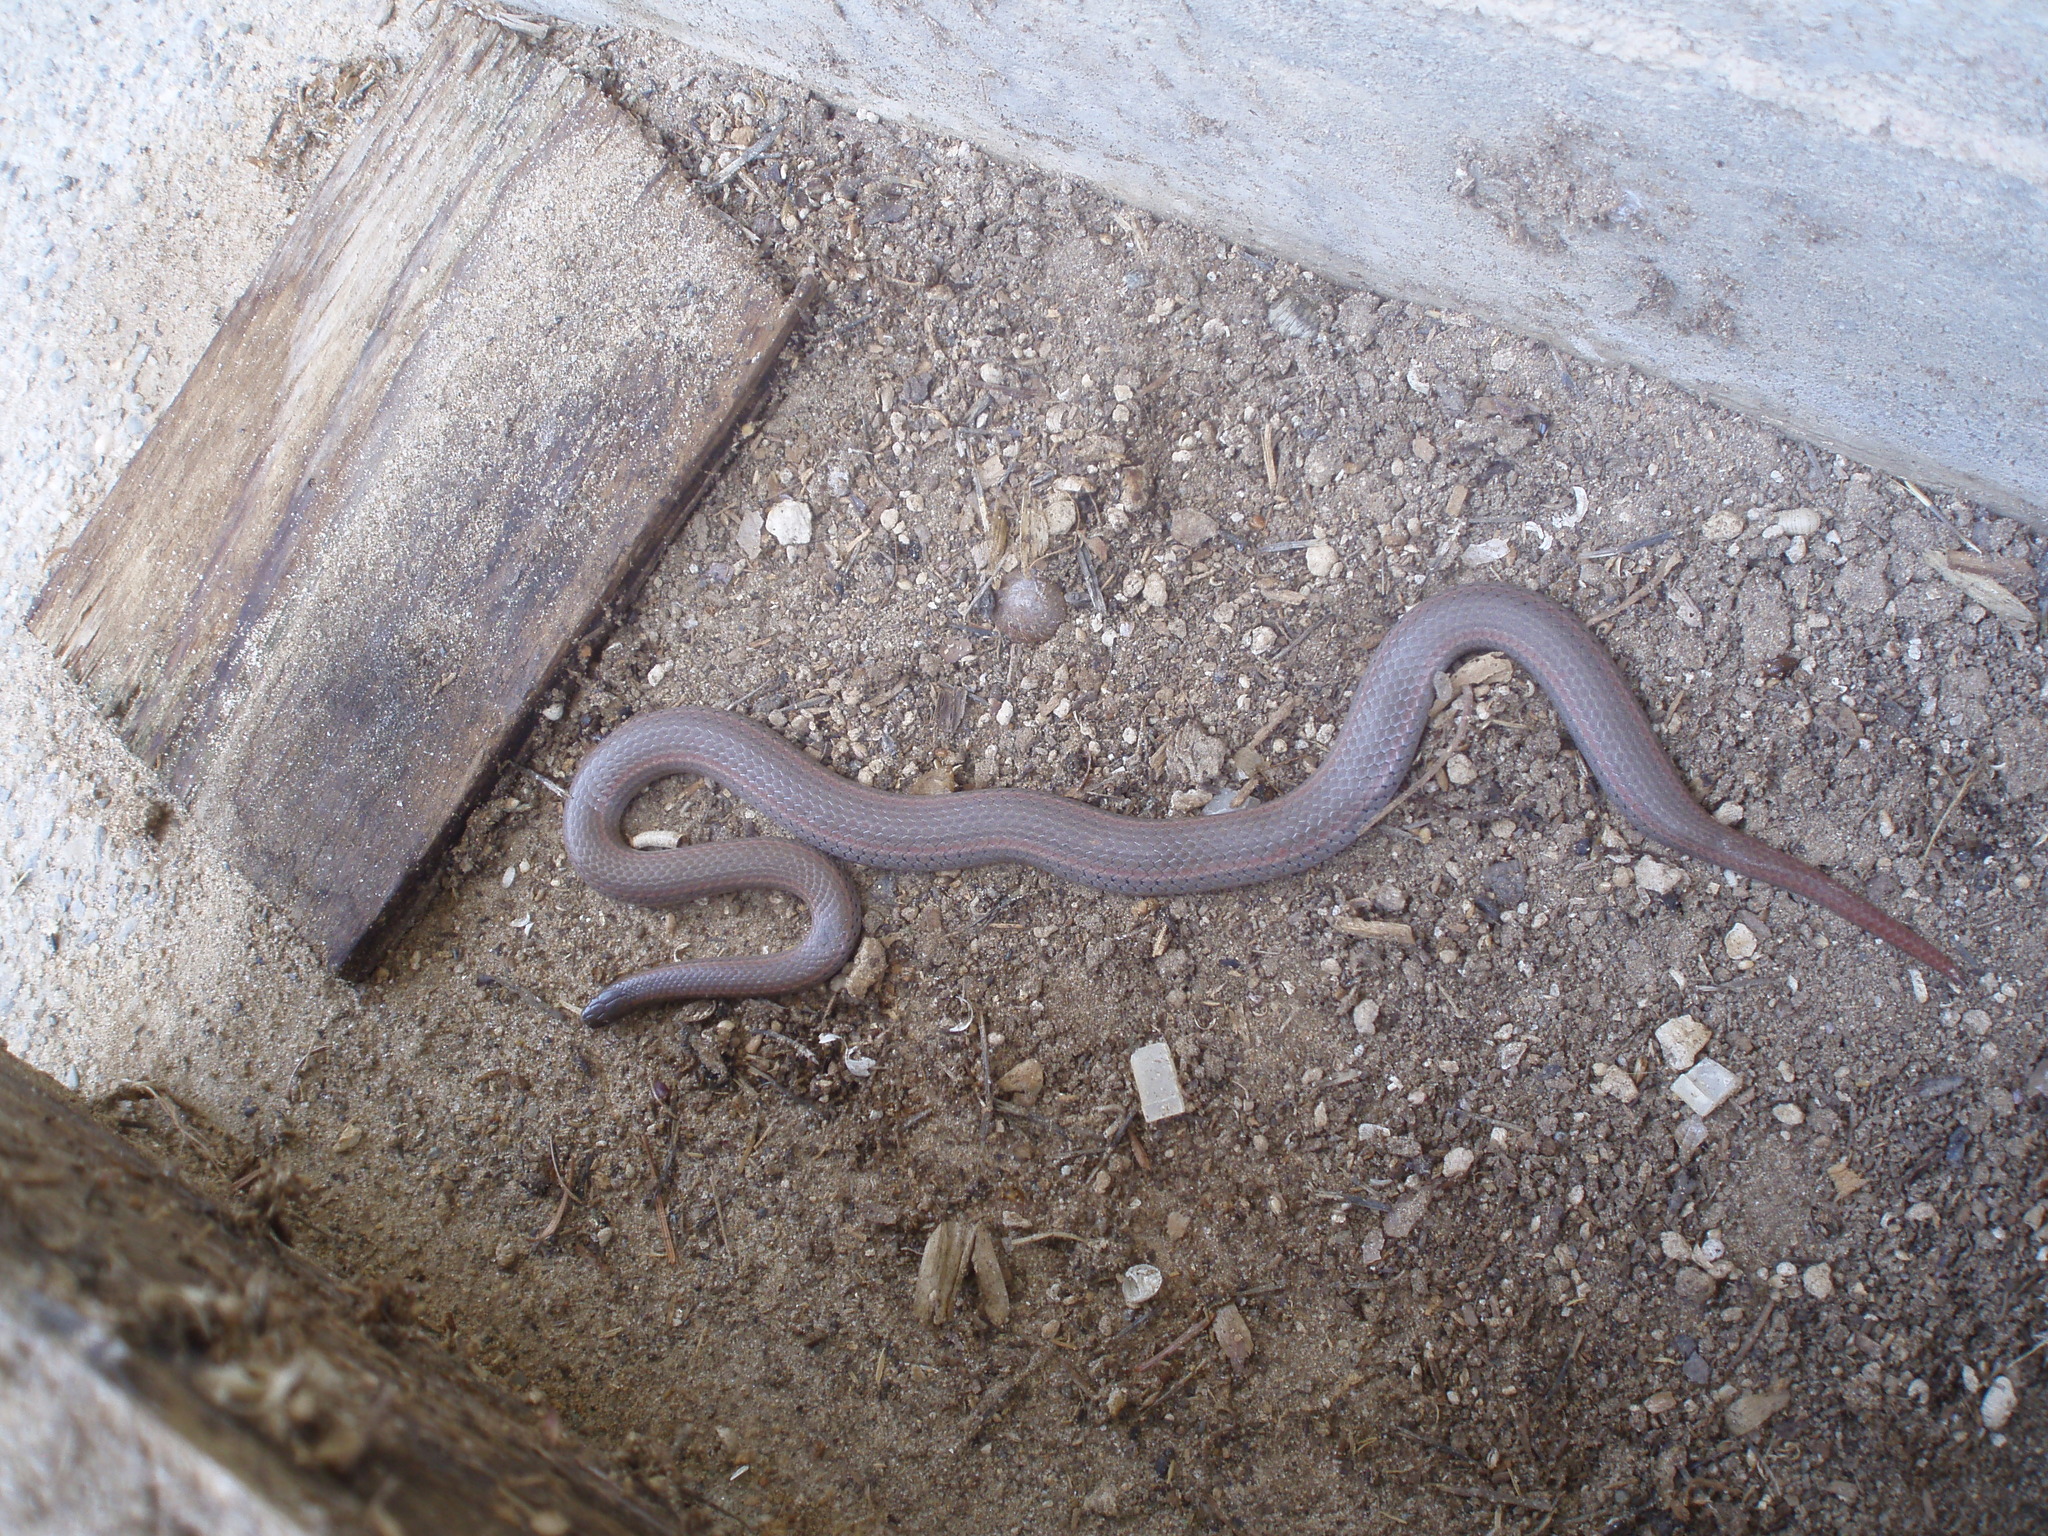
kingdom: Animalia
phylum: Chordata
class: Squamata
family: Colubridae
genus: Contia
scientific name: Contia tenuis
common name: Sharptail snake
